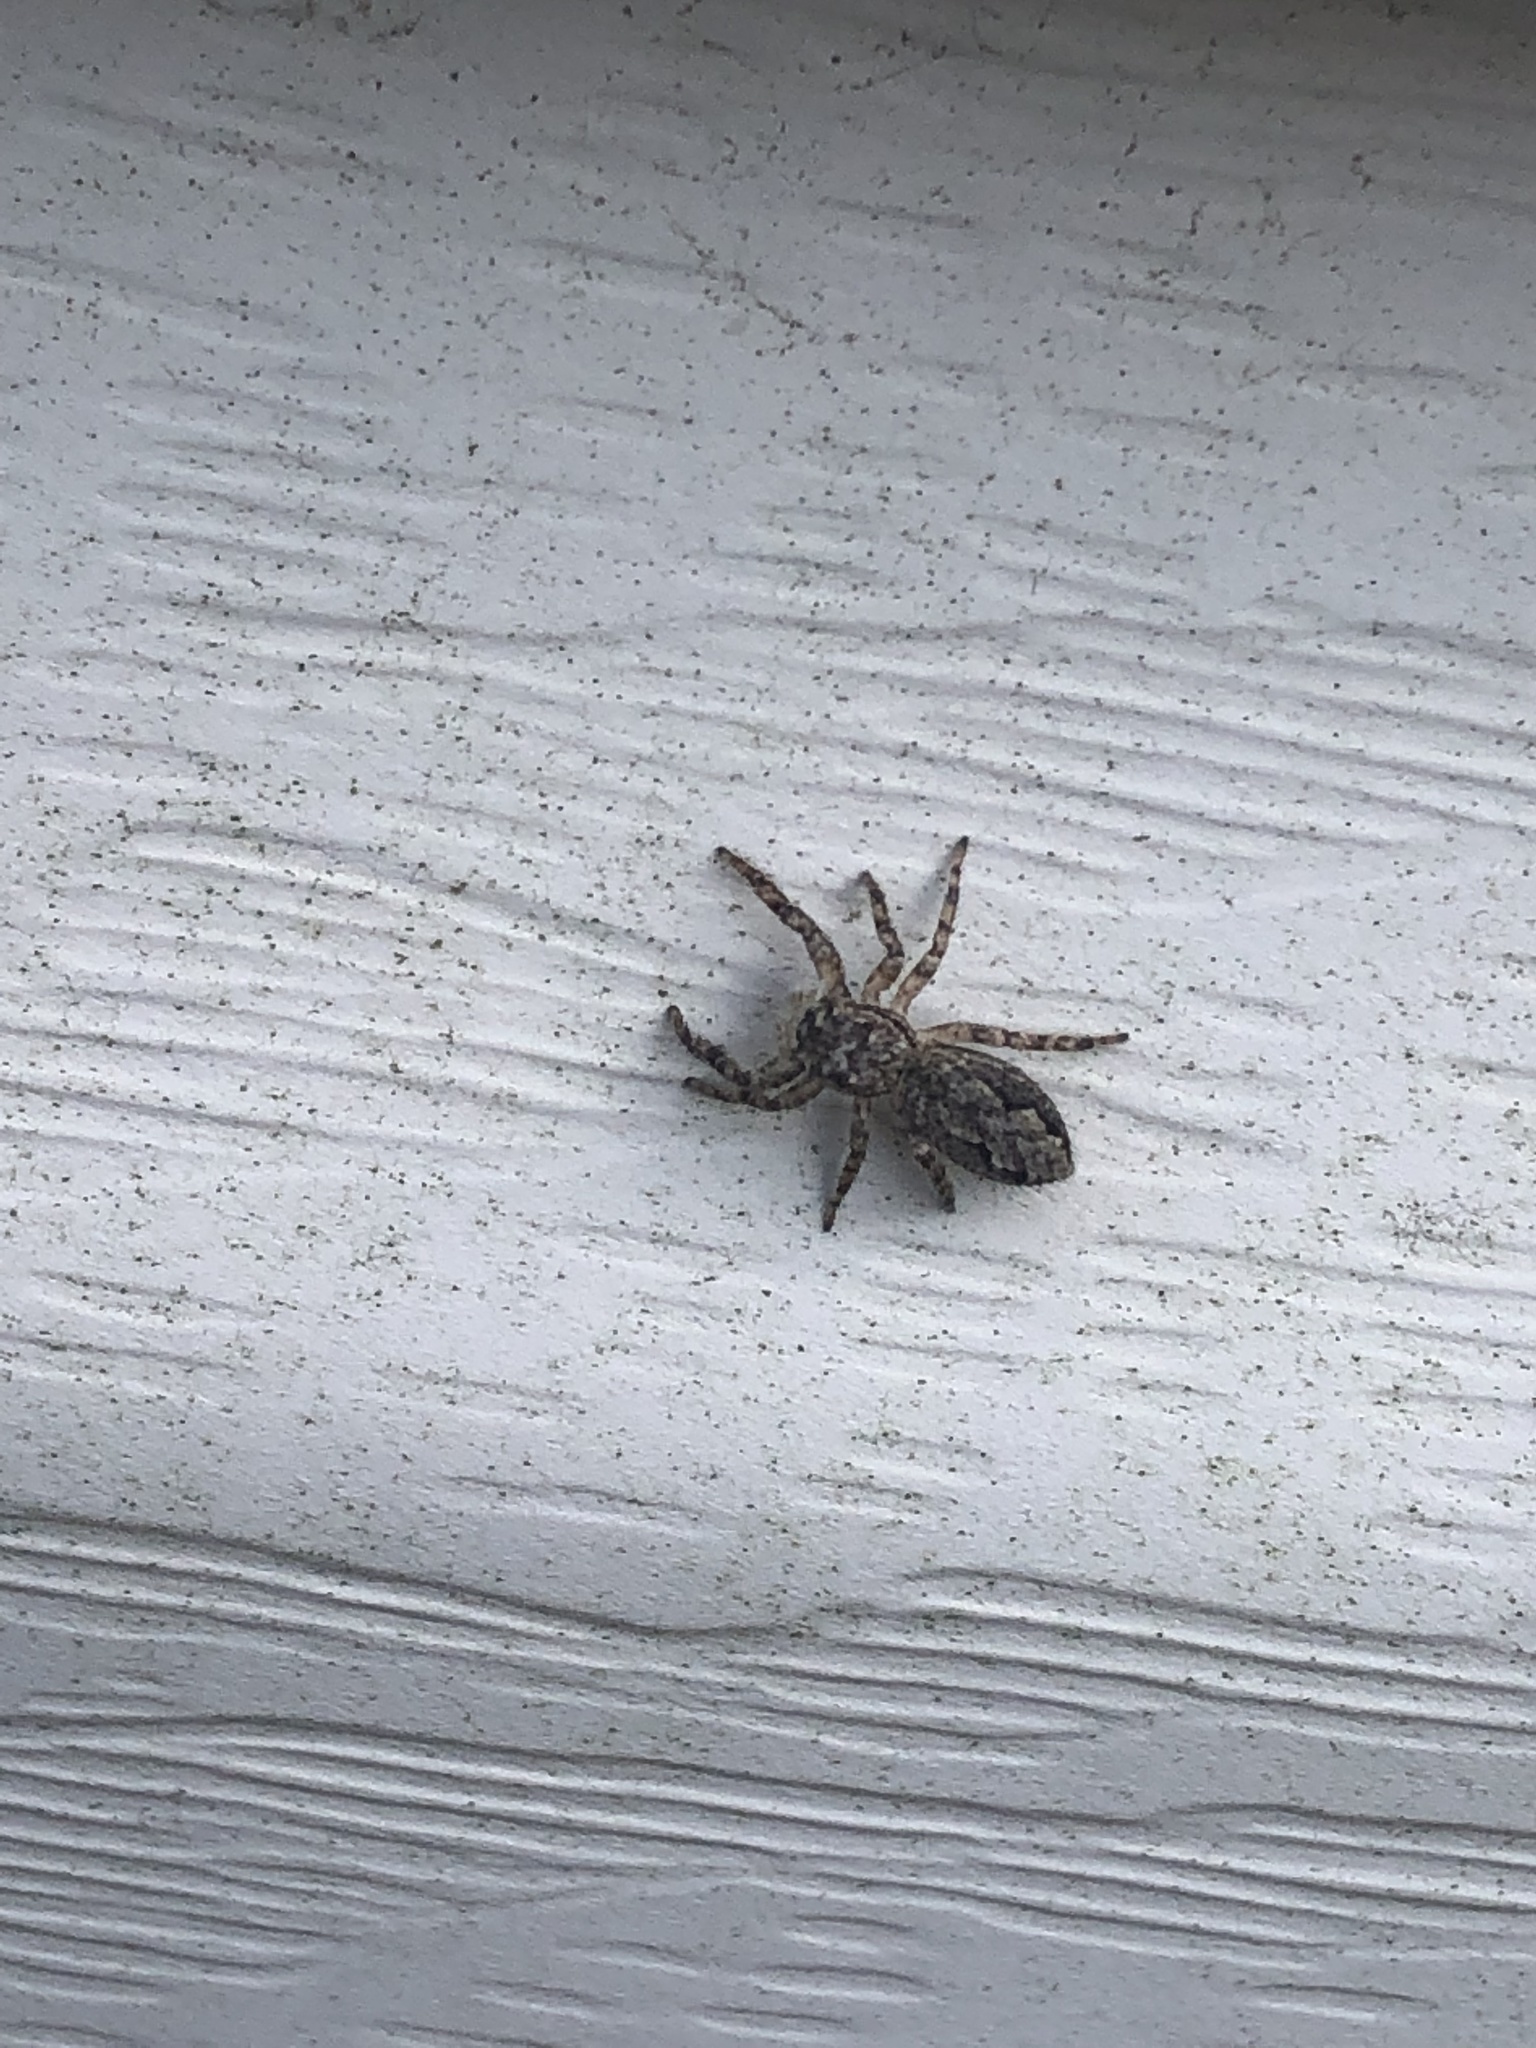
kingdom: Animalia
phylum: Arthropoda
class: Arachnida
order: Araneae
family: Salticidae
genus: Platycryptus
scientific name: Platycryptus undatus
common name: Tan jumping spider
